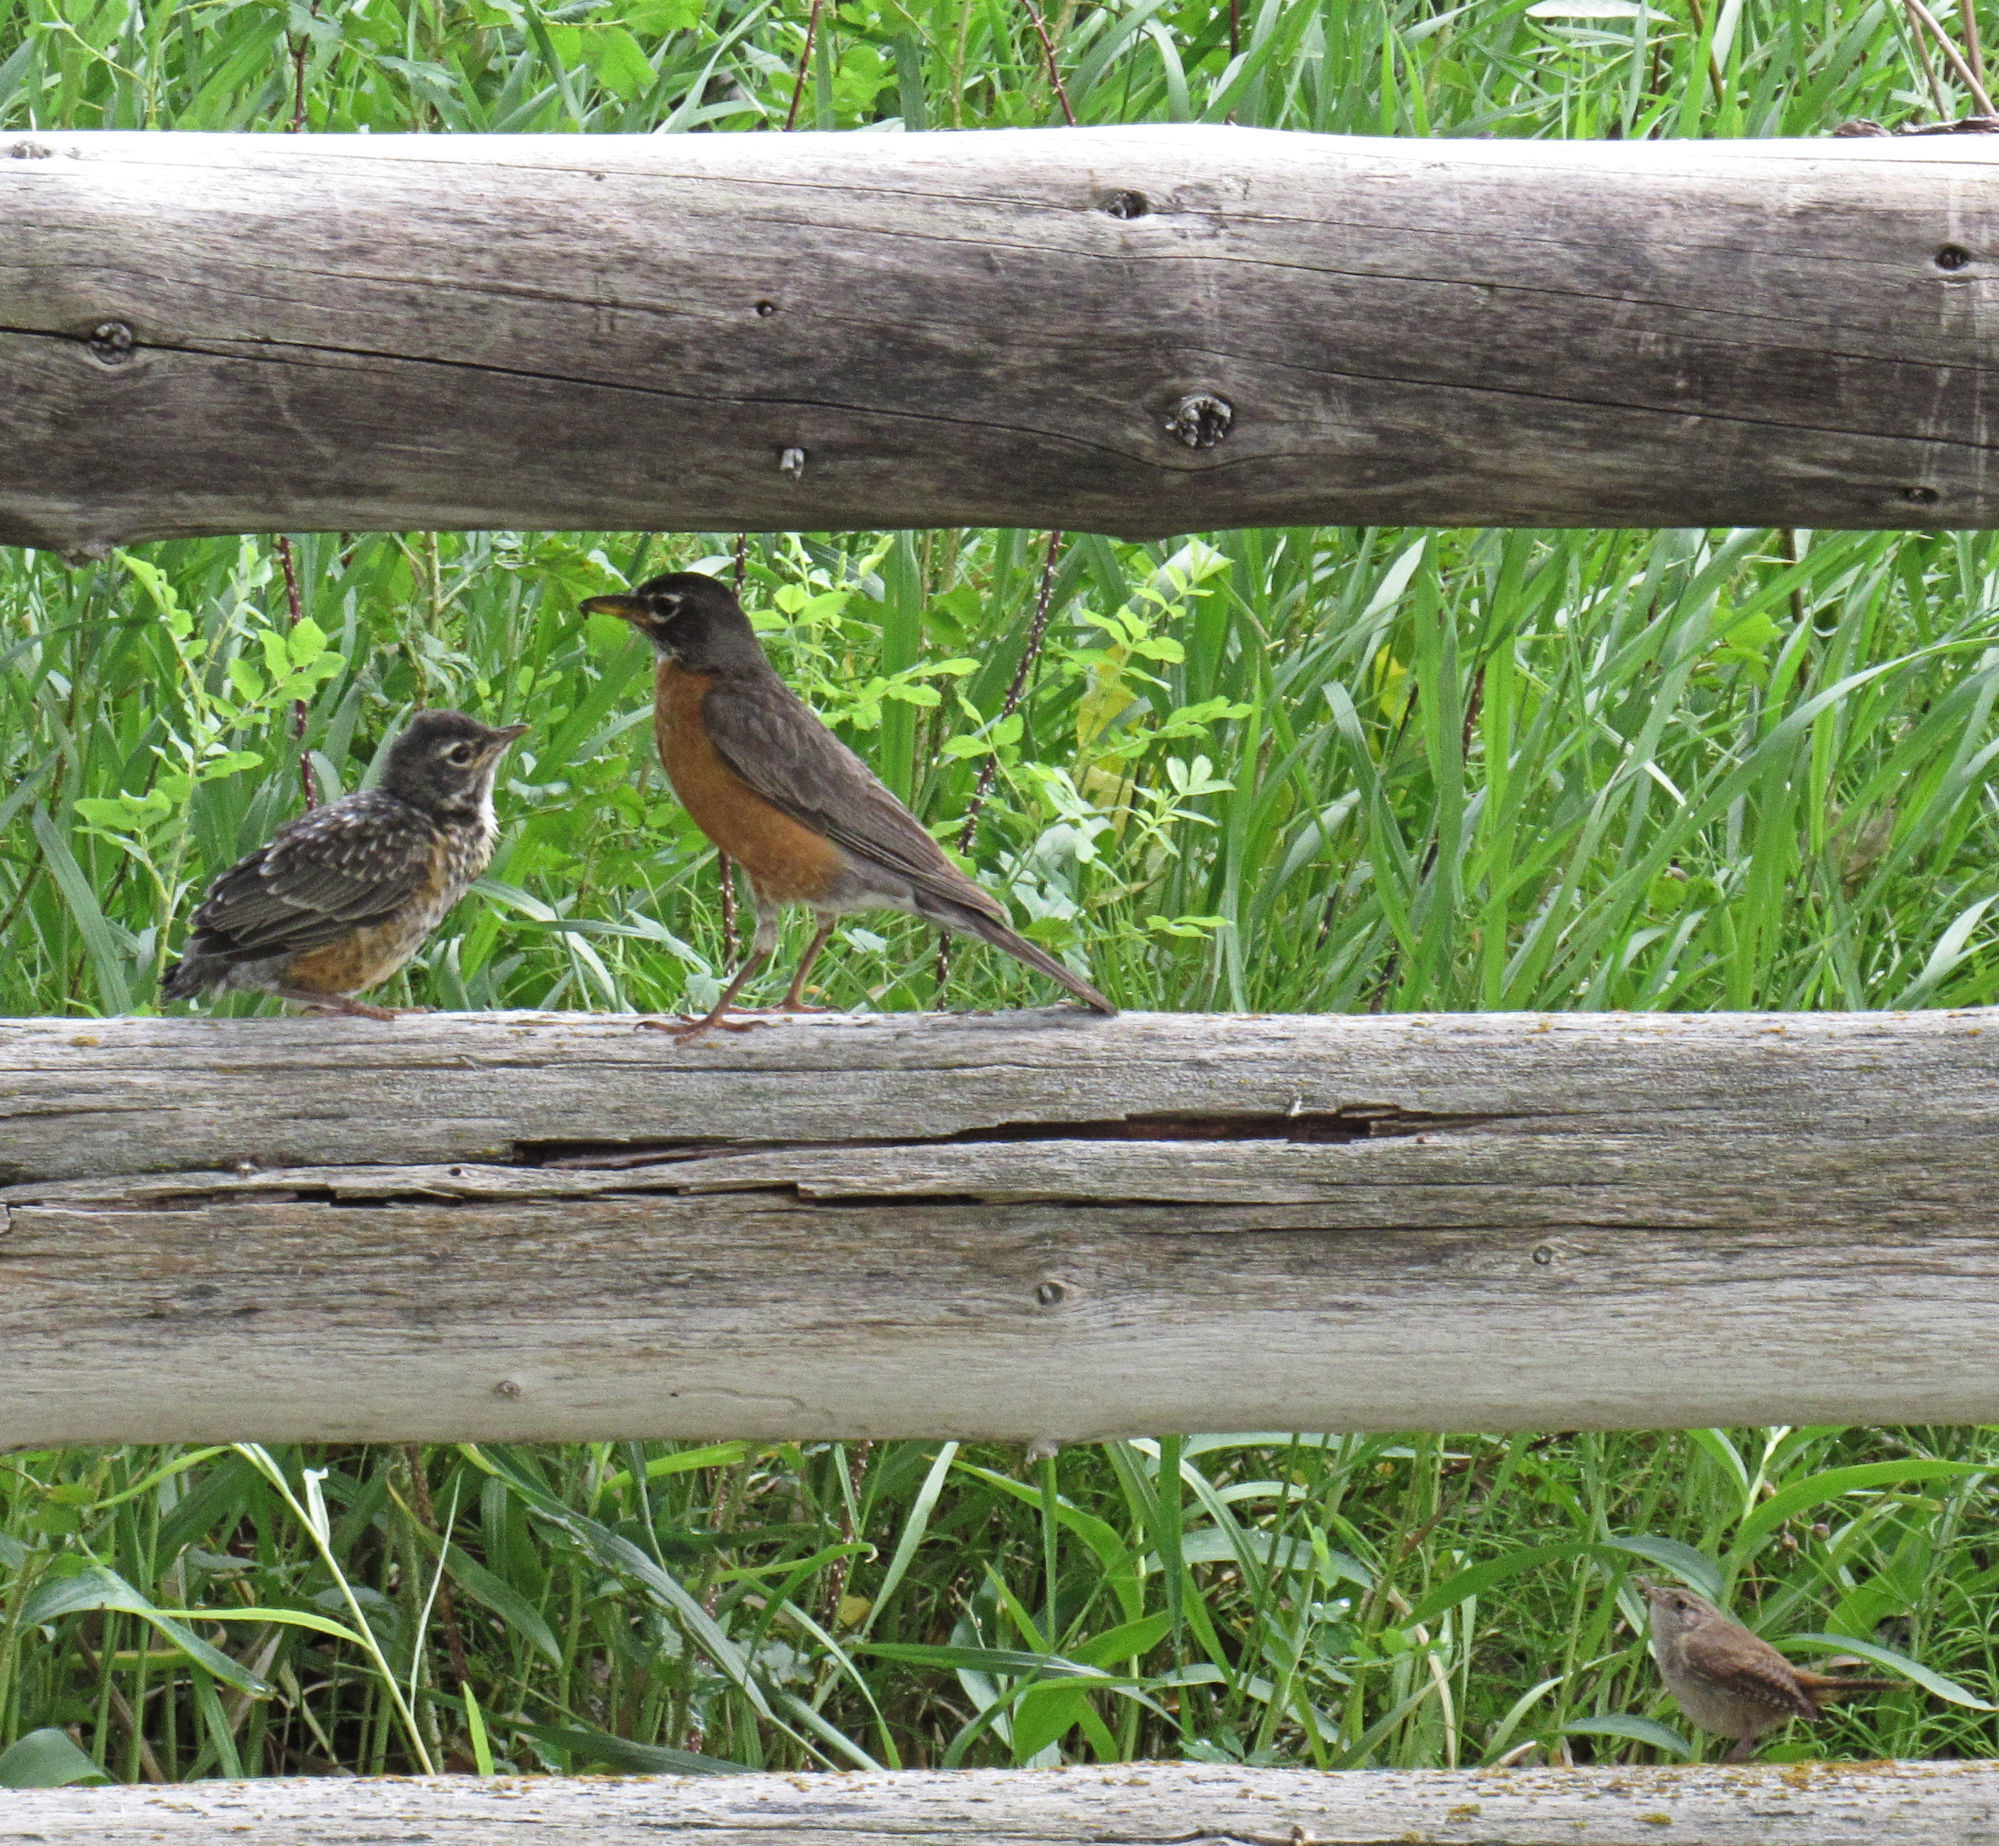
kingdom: Animalia
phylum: Chordata
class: Aves
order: Passeriformes
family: Turdidae
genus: Turdus
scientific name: Turdus migratorius
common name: American robin
